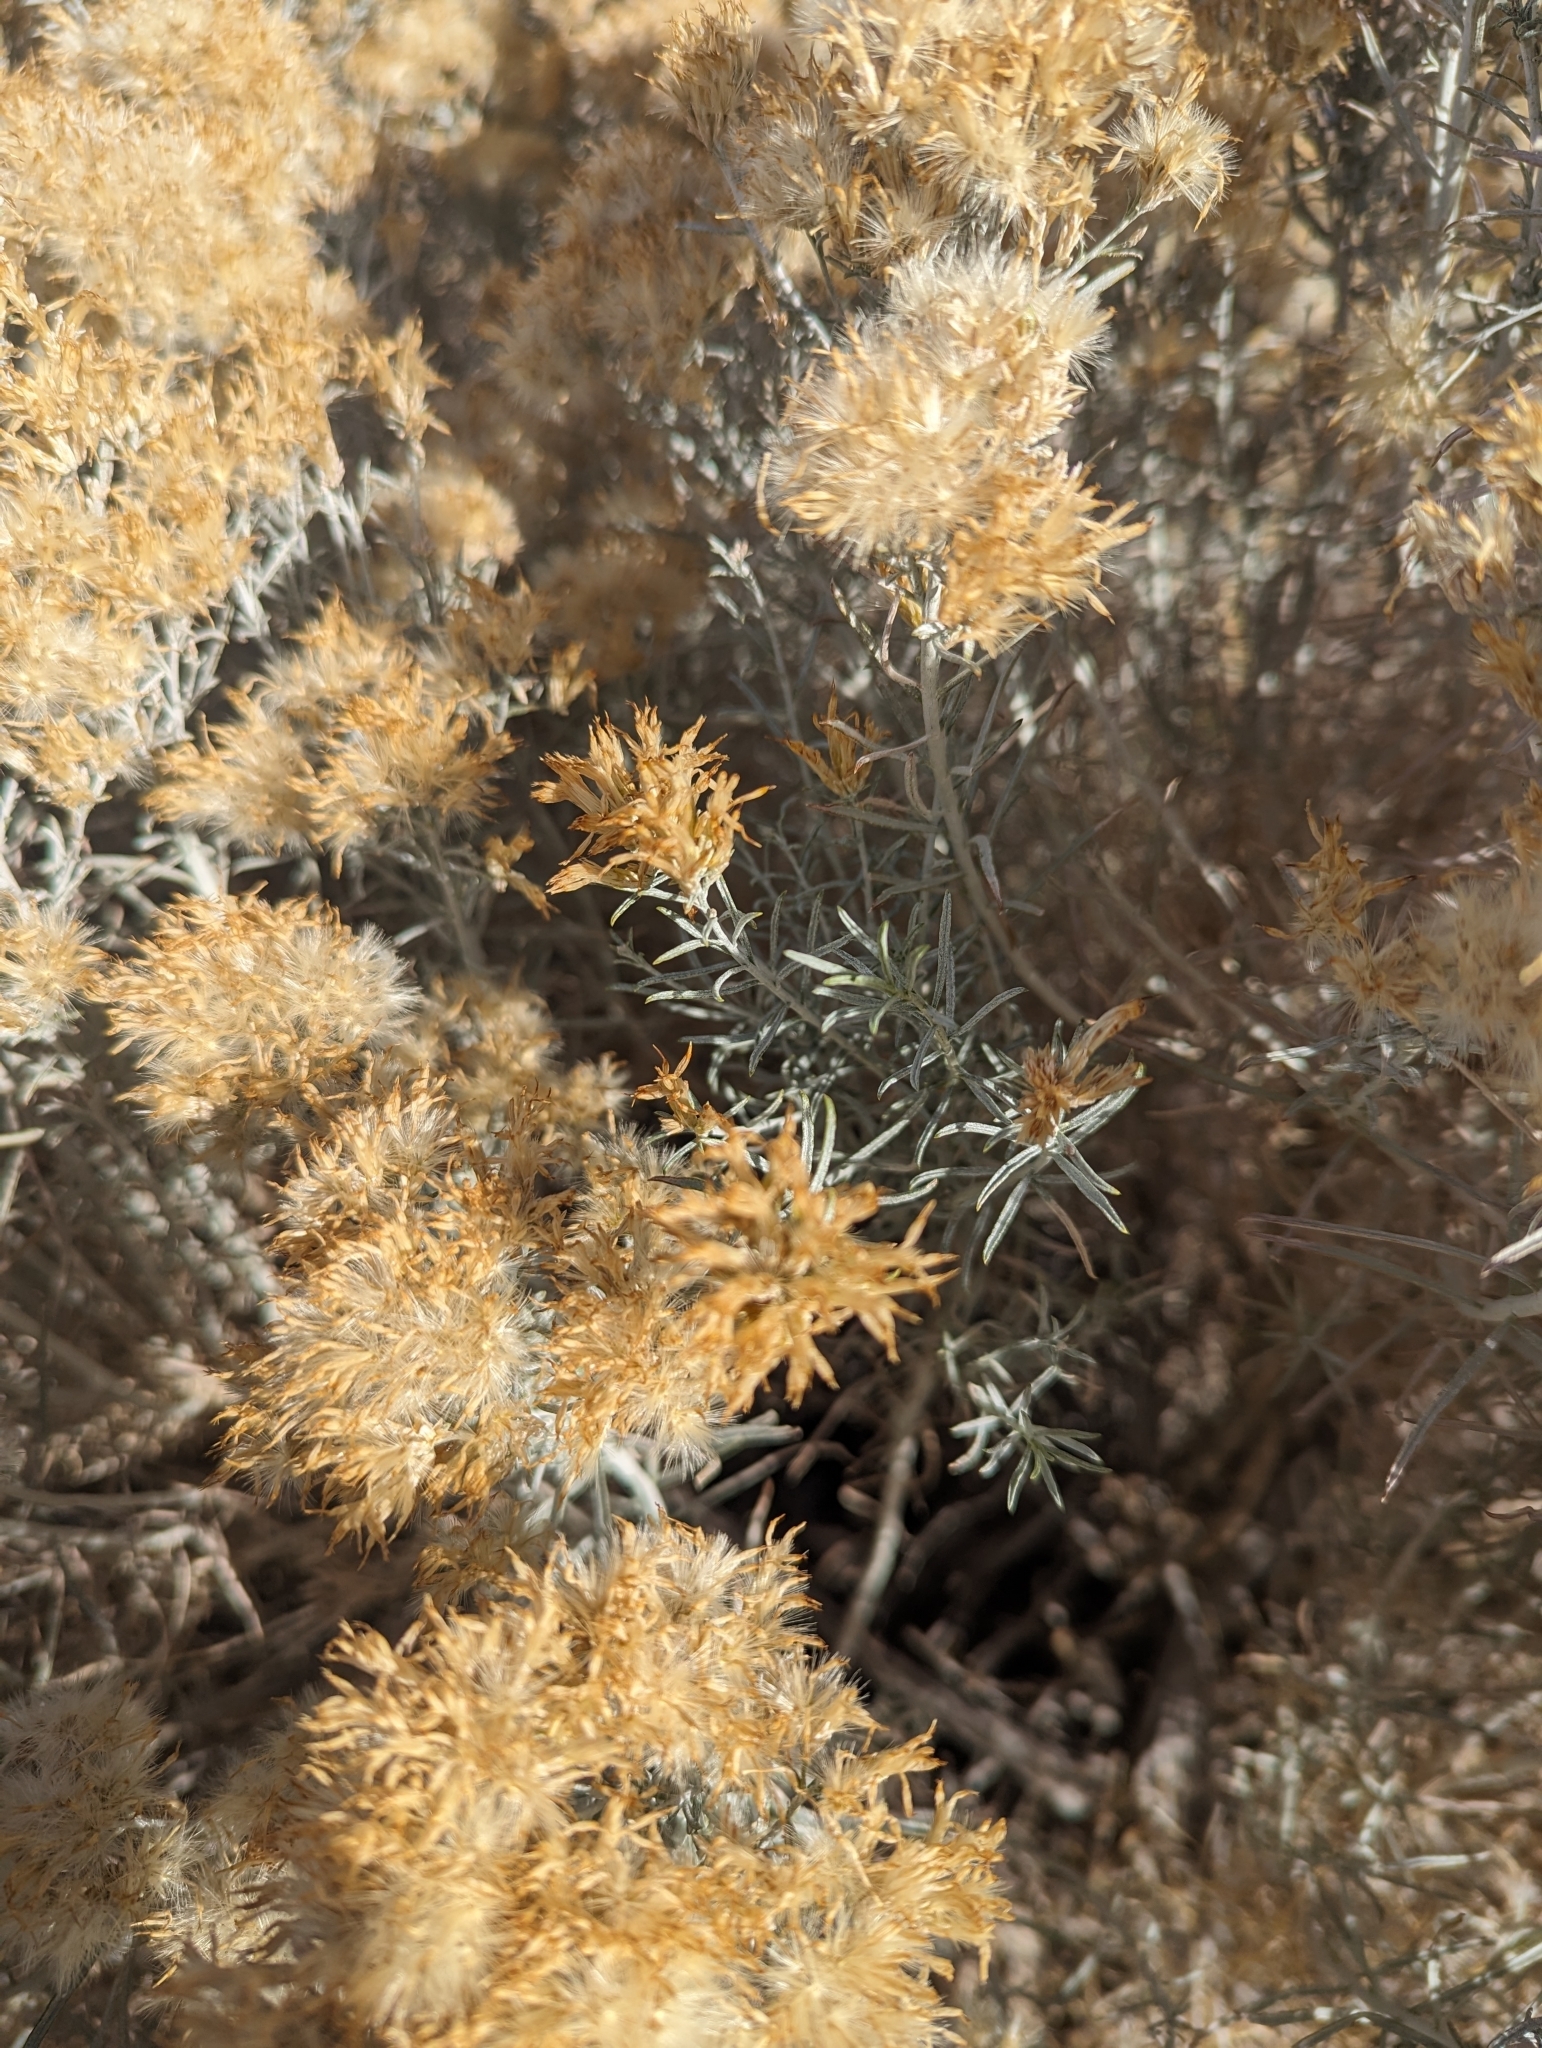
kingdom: Plantae
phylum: Tracheophyta
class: Magnoliopsida
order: Asterales
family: Asteraceae
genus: Ericameria
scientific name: Ericameria nauseosa
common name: Rubber rabbitbrush
